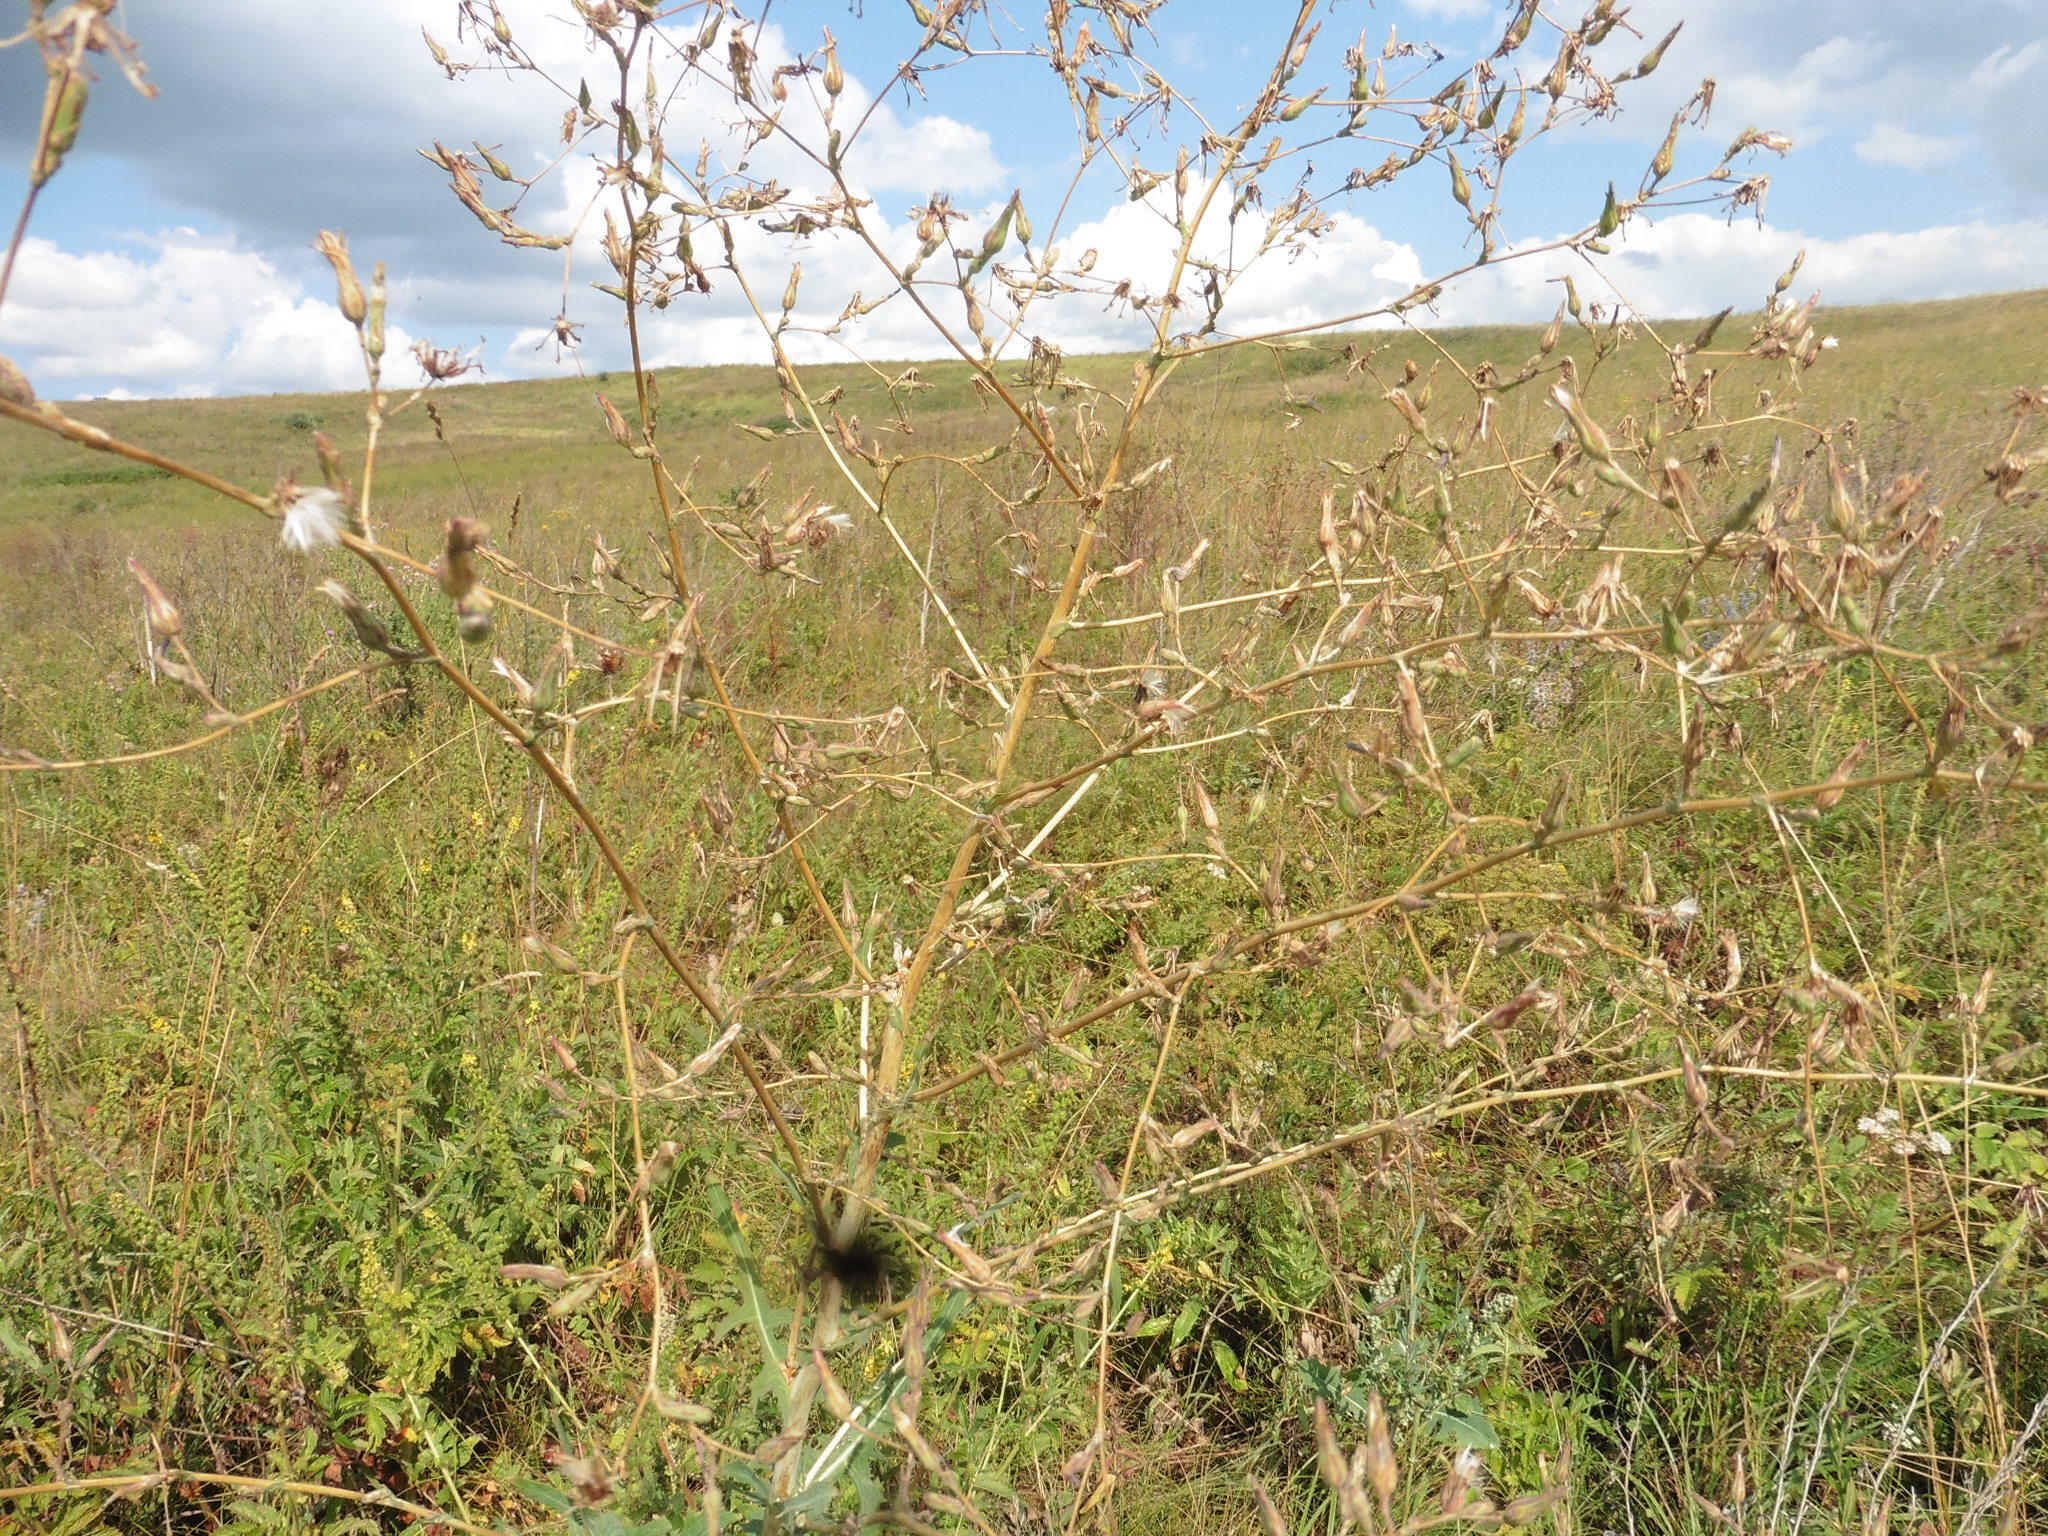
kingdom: Plantae
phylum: Tracheophyta
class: Magnoliopsida
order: Asterales
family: Asteraceae
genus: Lactuca
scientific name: Lactuca serriola
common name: Prickly lettuce
